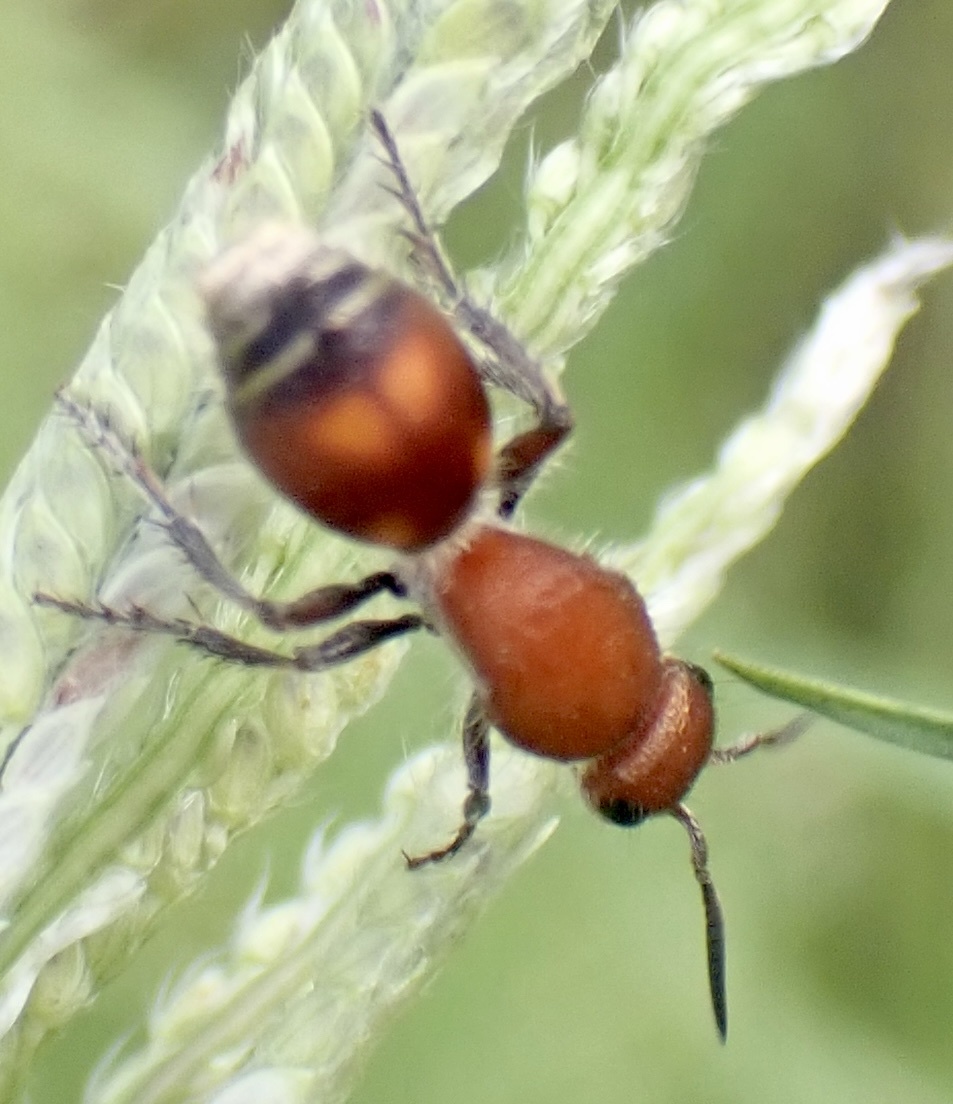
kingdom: Animalia
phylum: Arthropoda
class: Insecta
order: Hymenoptera
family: Mutillidae
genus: Dasymutilla
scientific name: Dasymutilla
